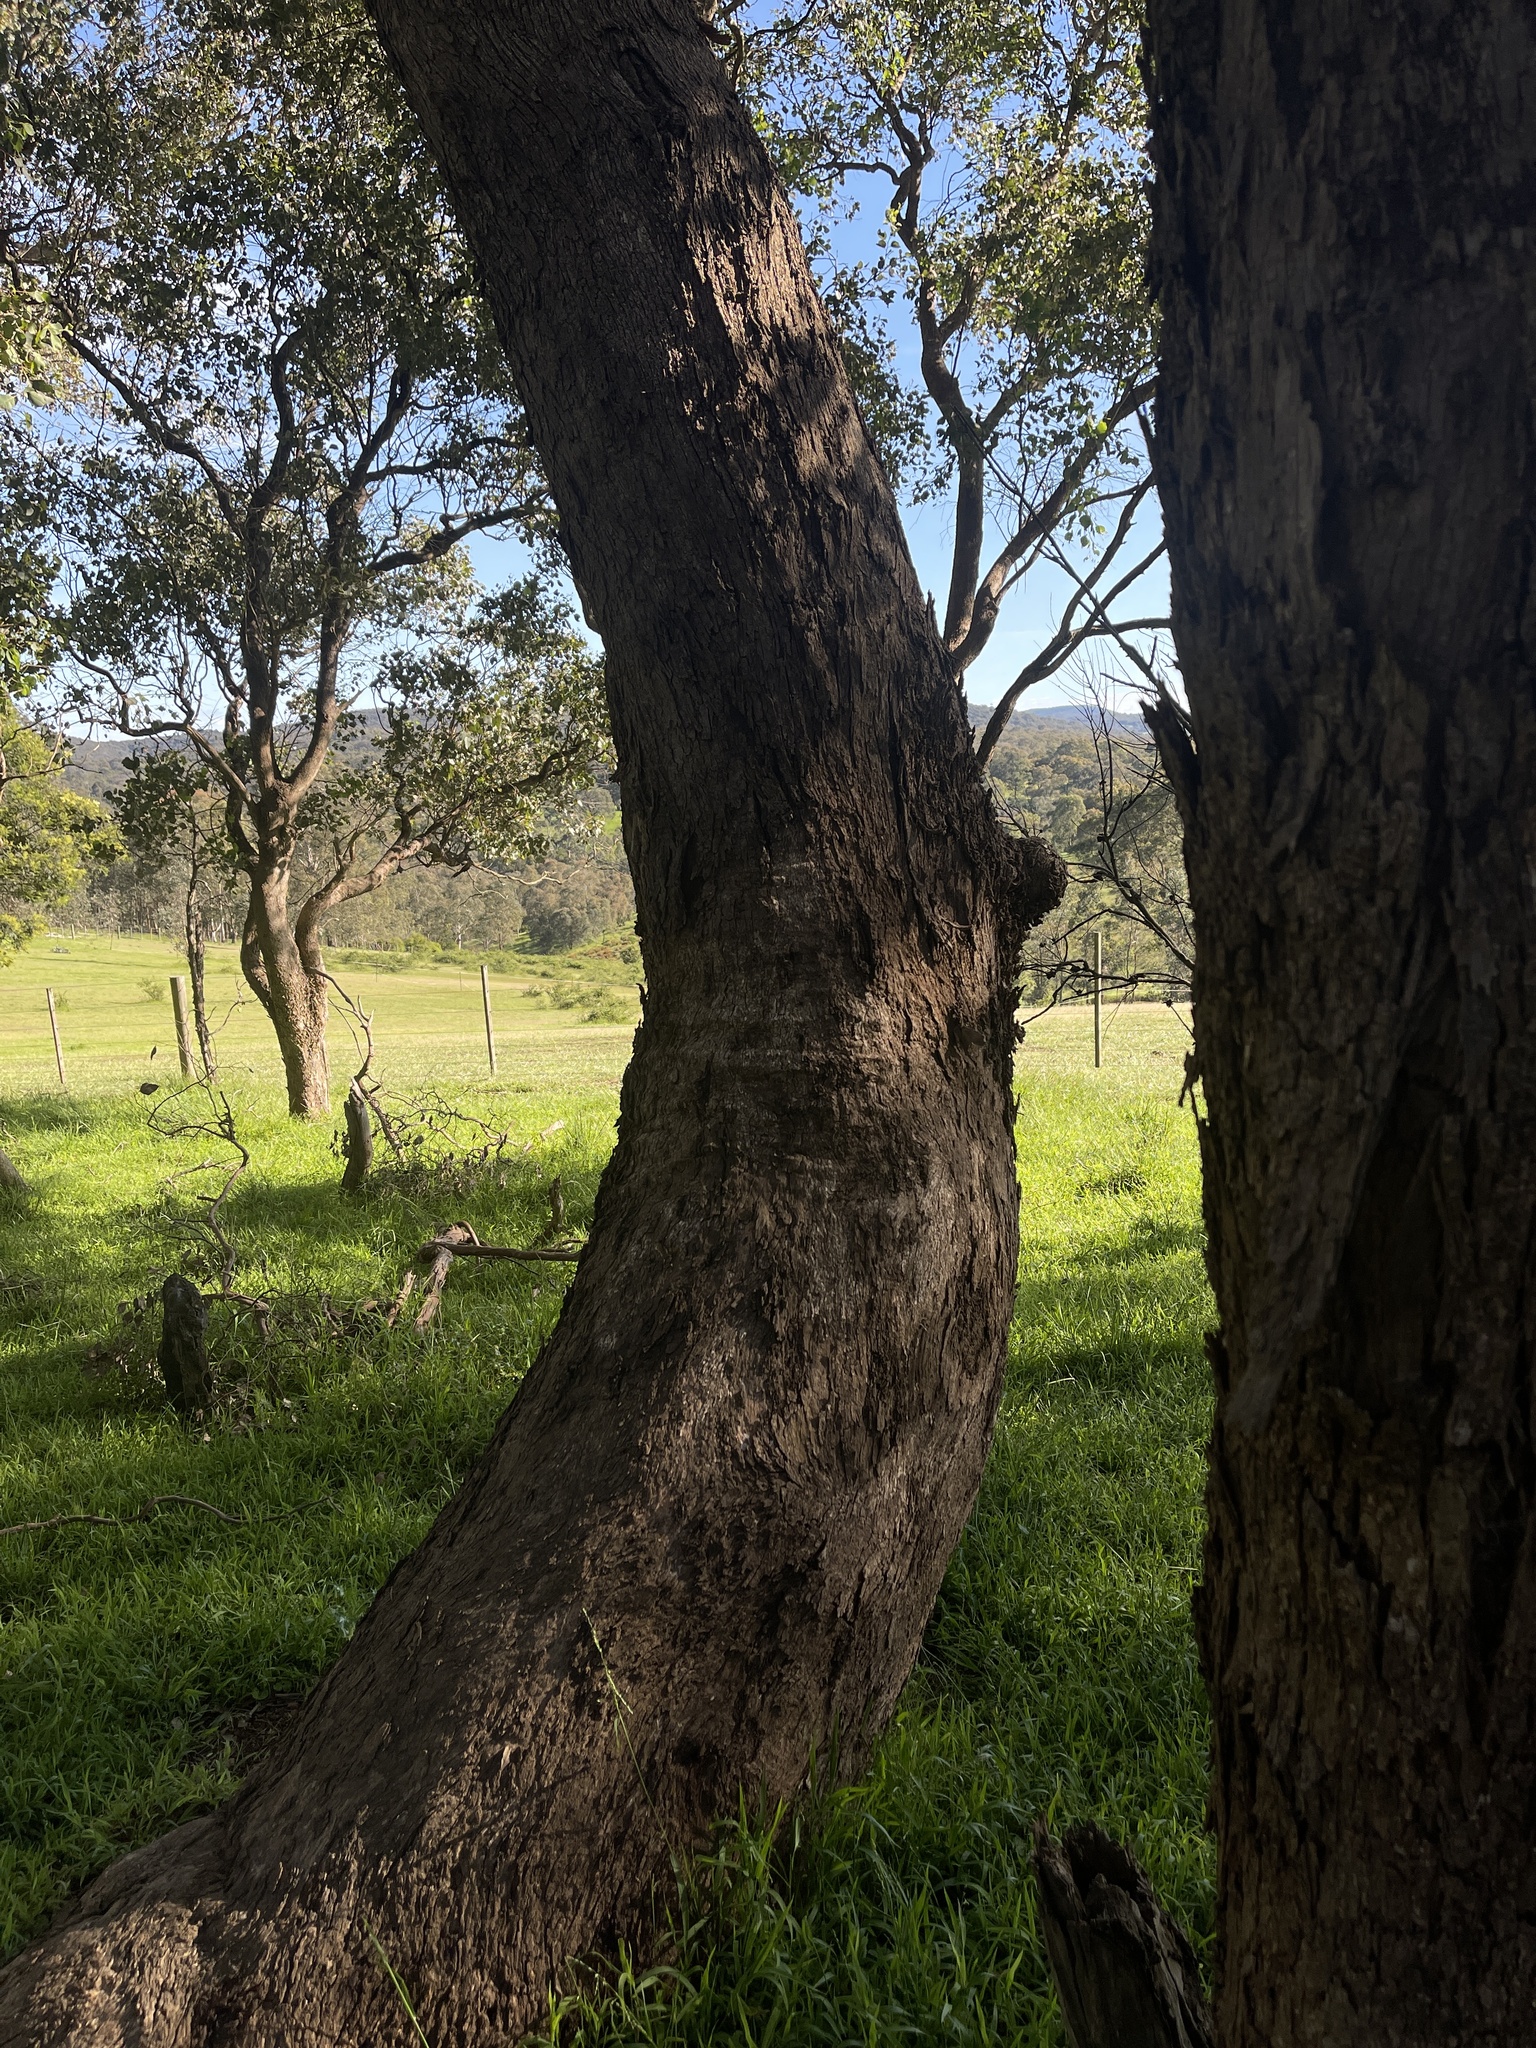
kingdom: Plantae
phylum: Tracheophyta
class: Magnoliopsida
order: Myrtales
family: Myrtaceae
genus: Eucalyptus
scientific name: Eucalyptus polyanthemos
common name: Red-box
